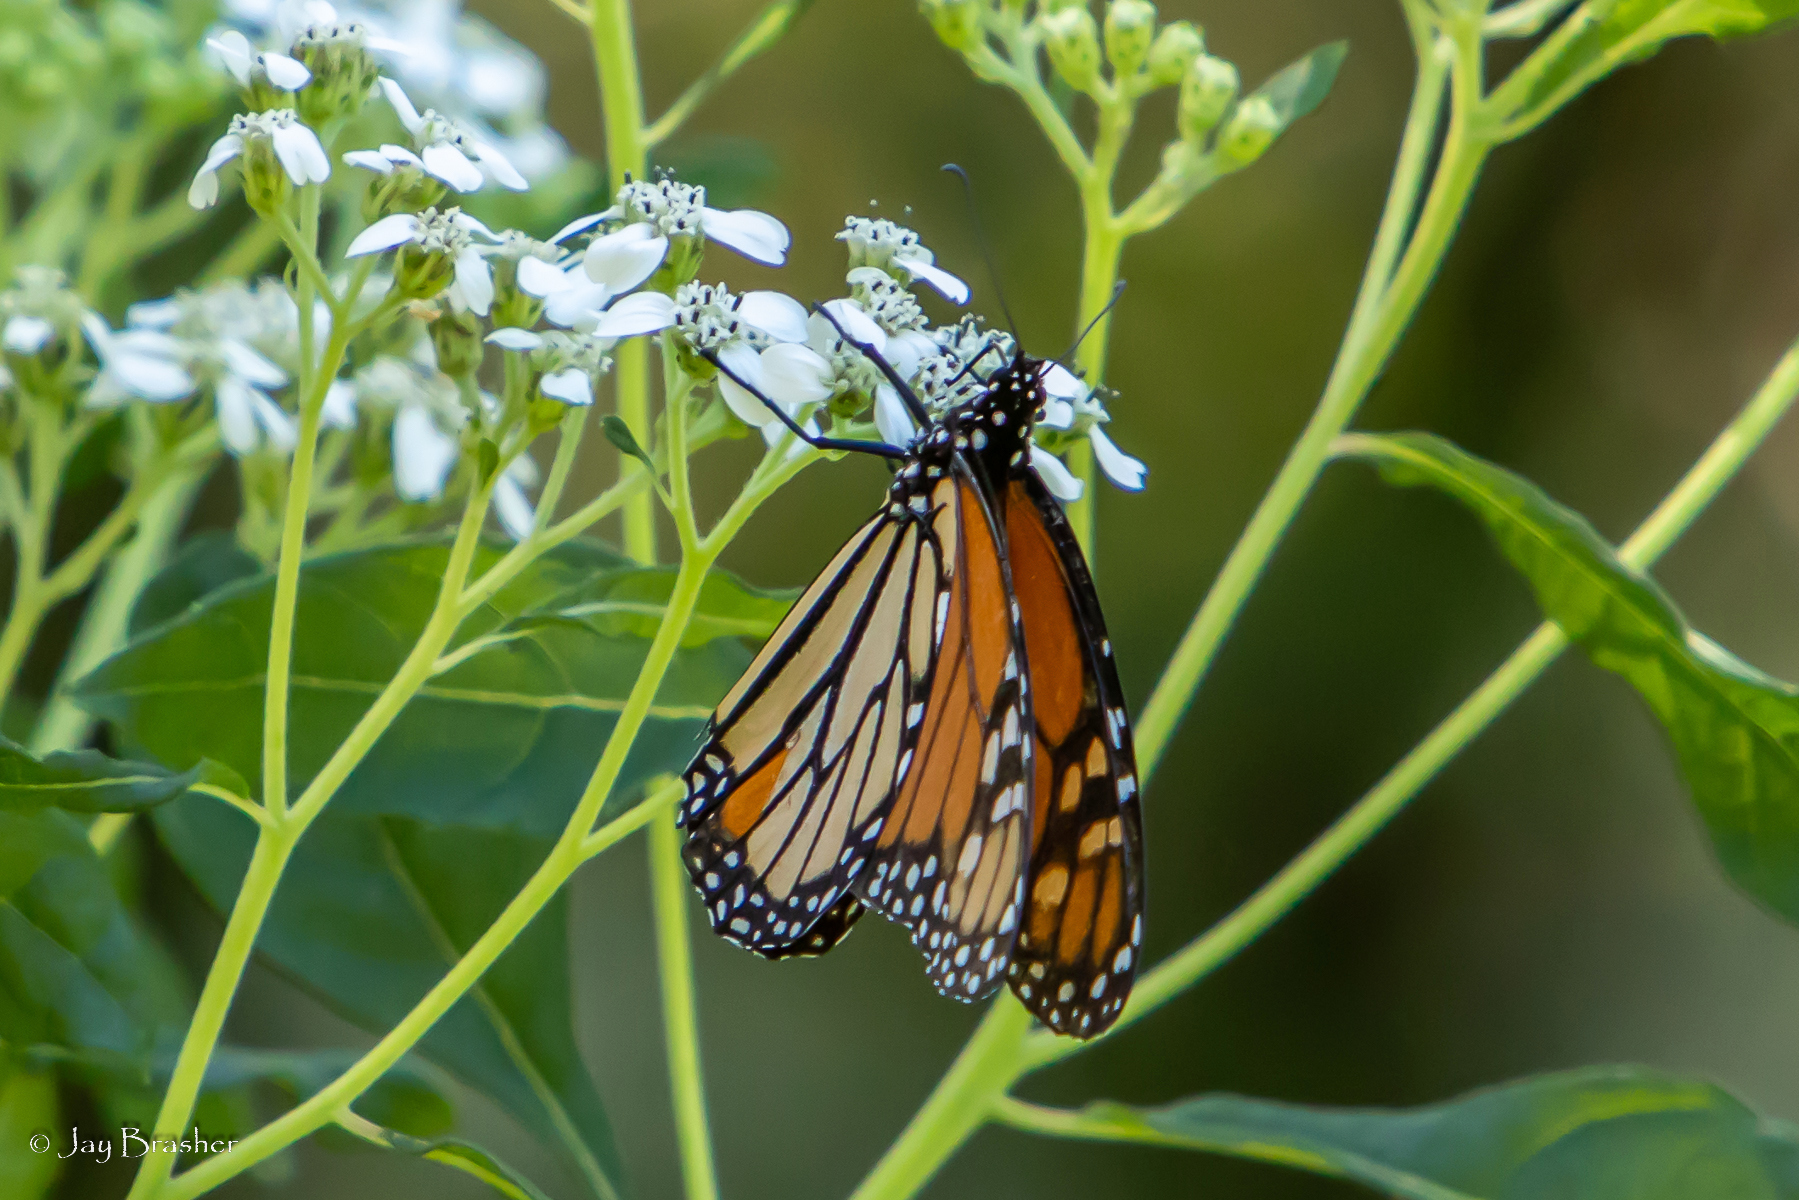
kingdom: Animalia
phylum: Arthropoda
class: Insecta
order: Lepidoptera
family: Nymphalidae
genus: Danaus
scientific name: Danaus plexippus
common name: Monarch
